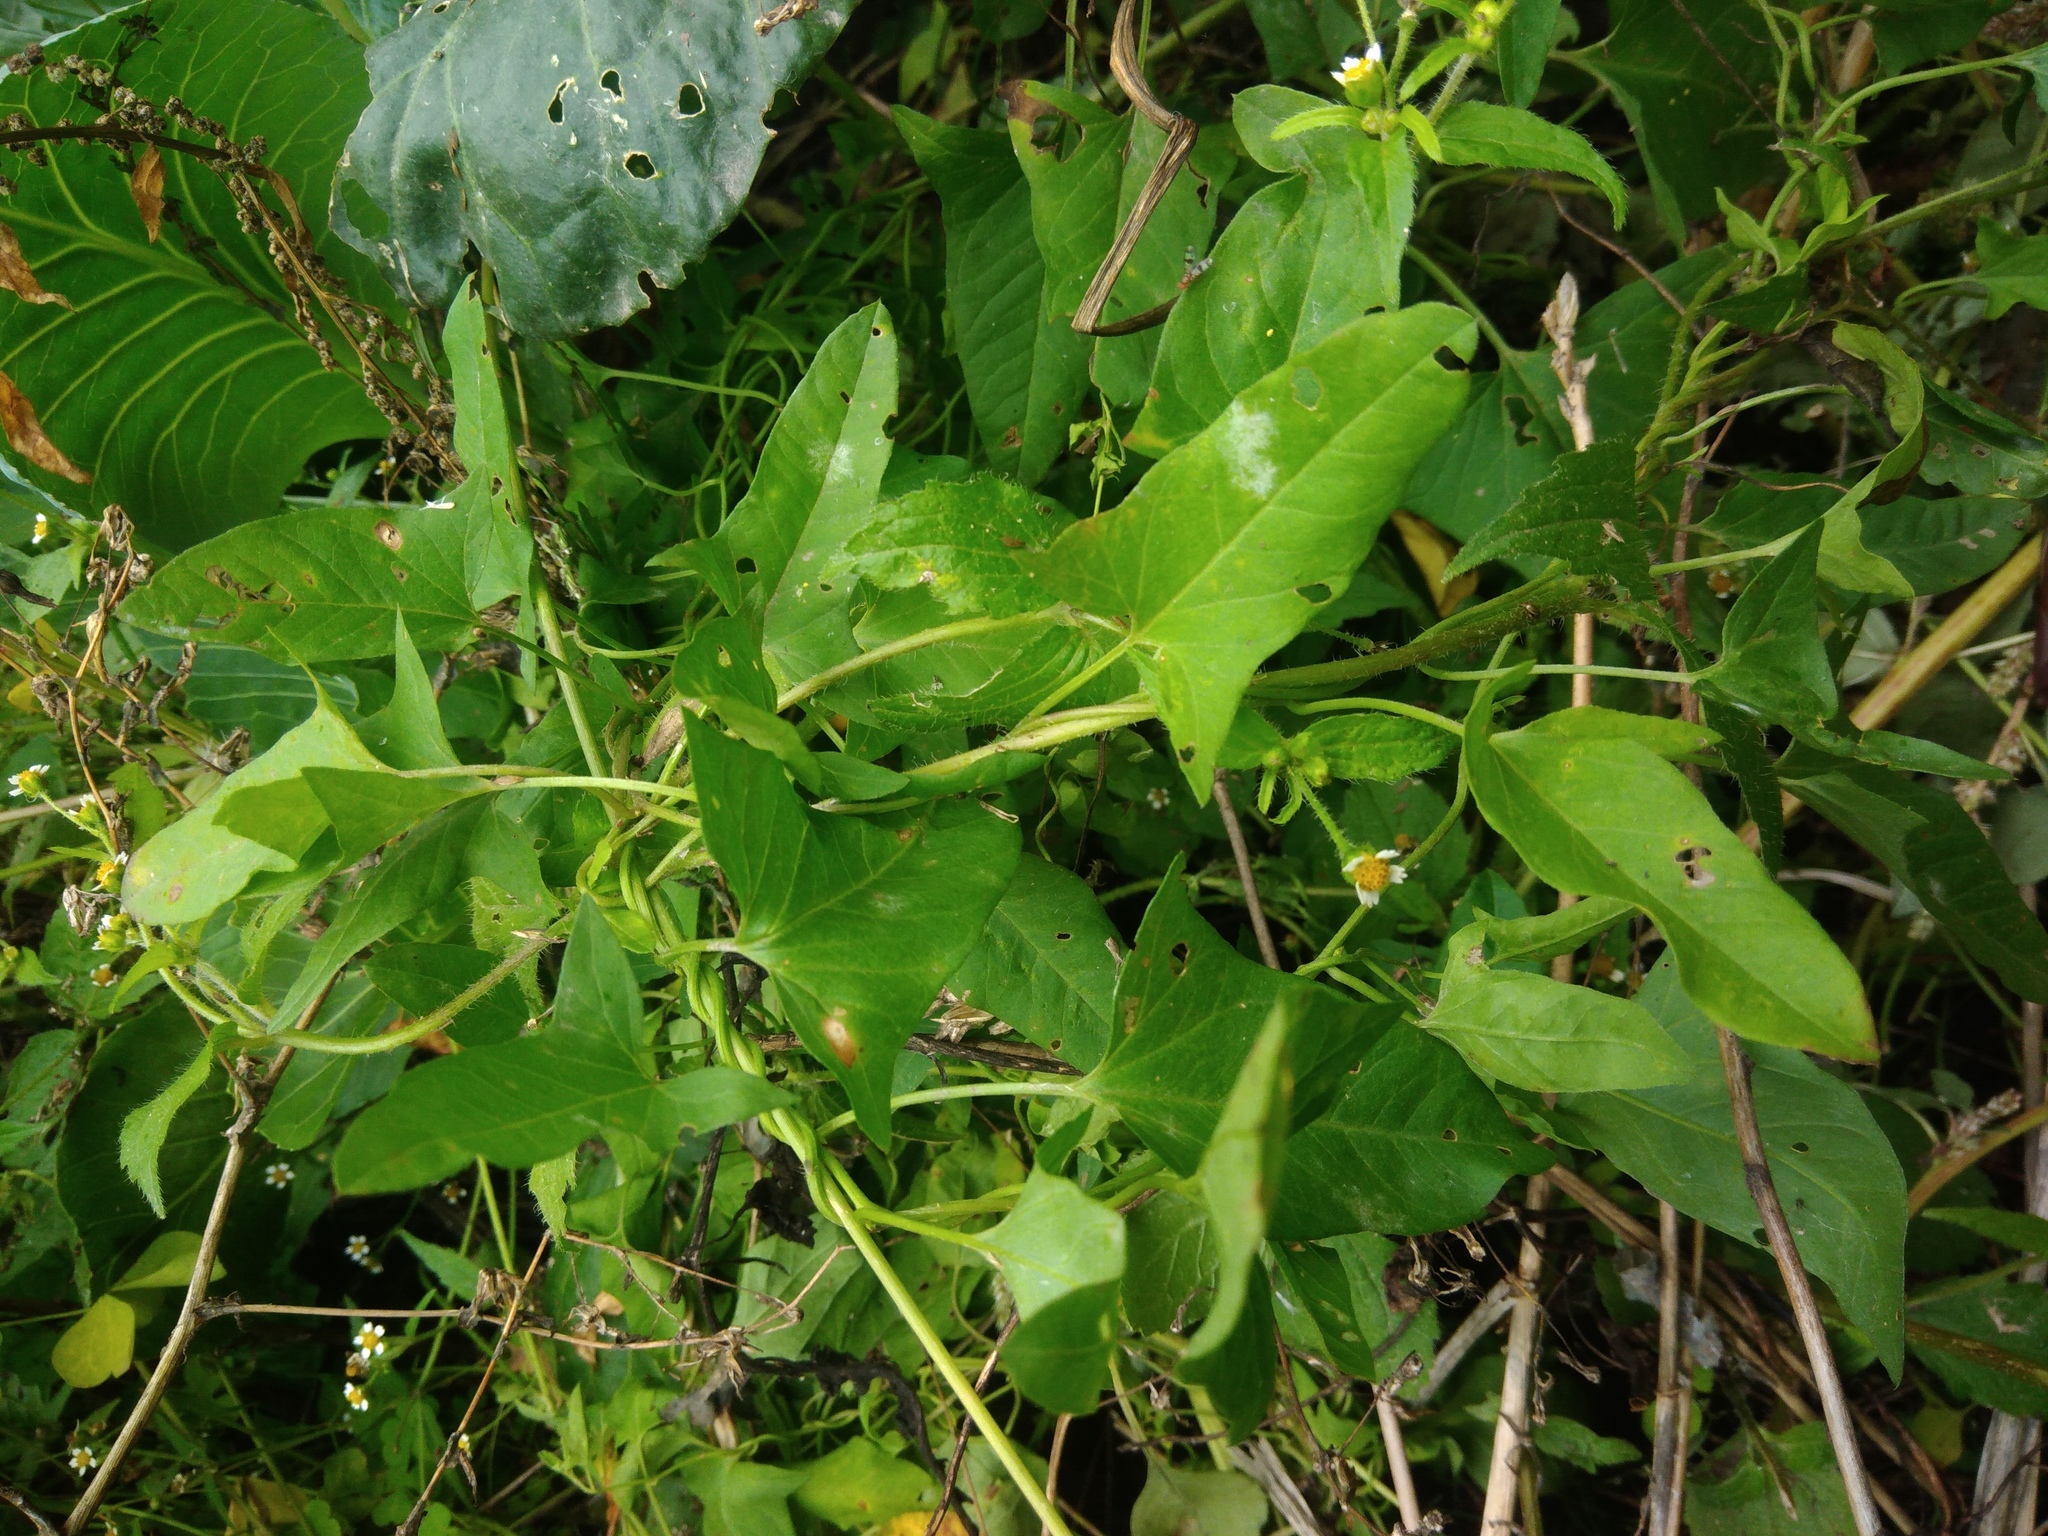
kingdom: Plantae
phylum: Tracheophyta
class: Magnoliopsida
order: Solanales
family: Convolvulaceae
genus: Convolvulus
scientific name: Convolvulus arvensis
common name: Field bindweed
